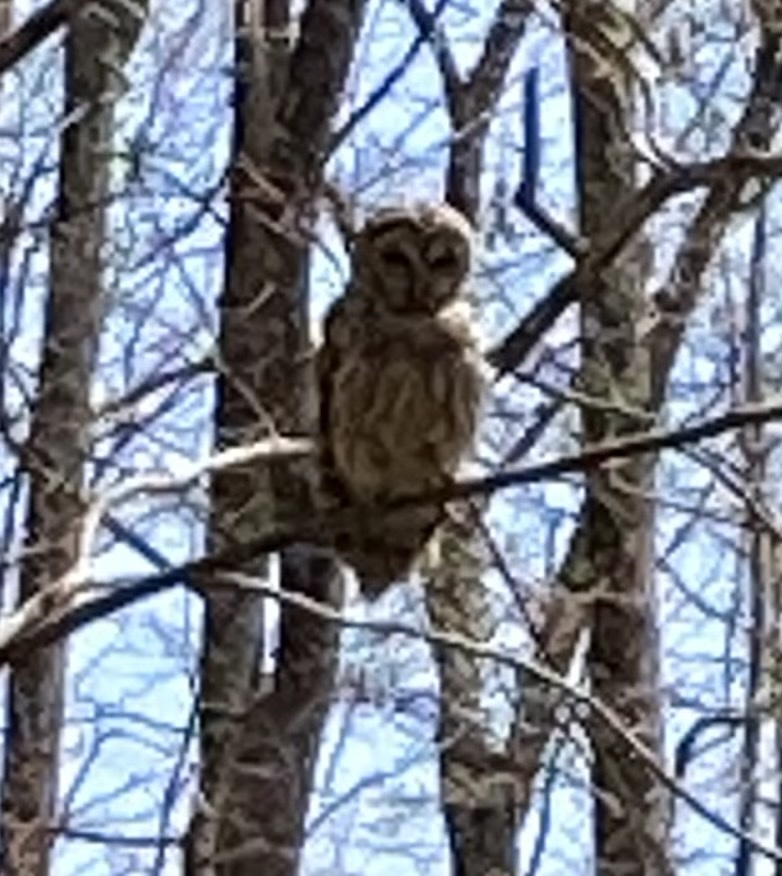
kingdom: Animalia
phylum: Chordata
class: Aves
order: Strigiformes
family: Strigidae
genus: Strix
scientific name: Strix varia
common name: Barred owl
